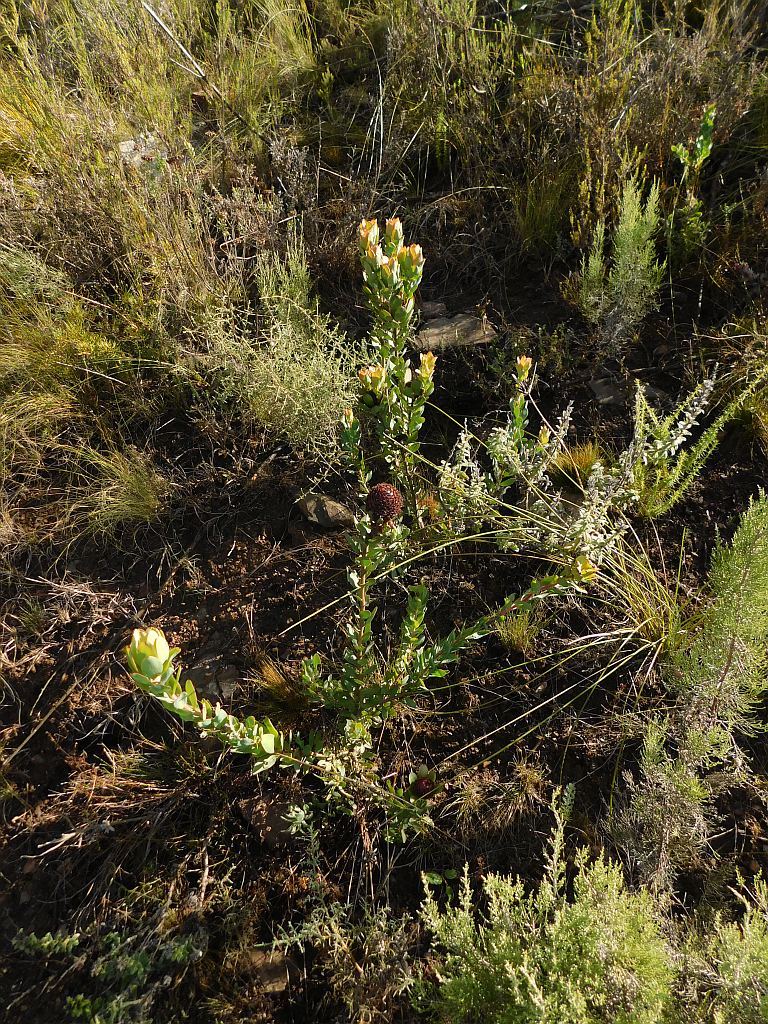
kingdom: Plantae
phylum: Tracheophyta
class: Magnoliopsida
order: Proteales
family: Proteaceae
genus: Leucadendron
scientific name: Leucadendron elimense
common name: Elim conebush
